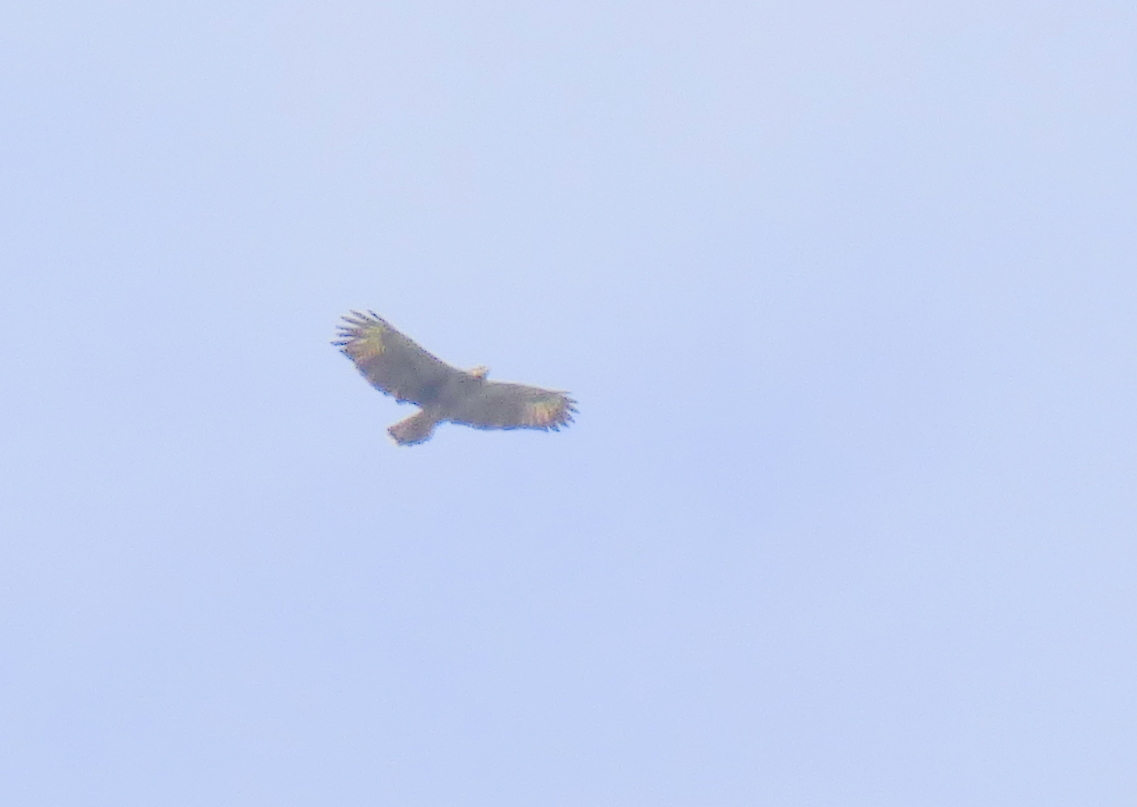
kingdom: Animalia
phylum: Chordata
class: Aves
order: Accipitriformes
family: Accipitridae
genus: Harpyhaliaetus
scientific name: Harpyhaliaetus coronatus
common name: Crowned solitary eagle
